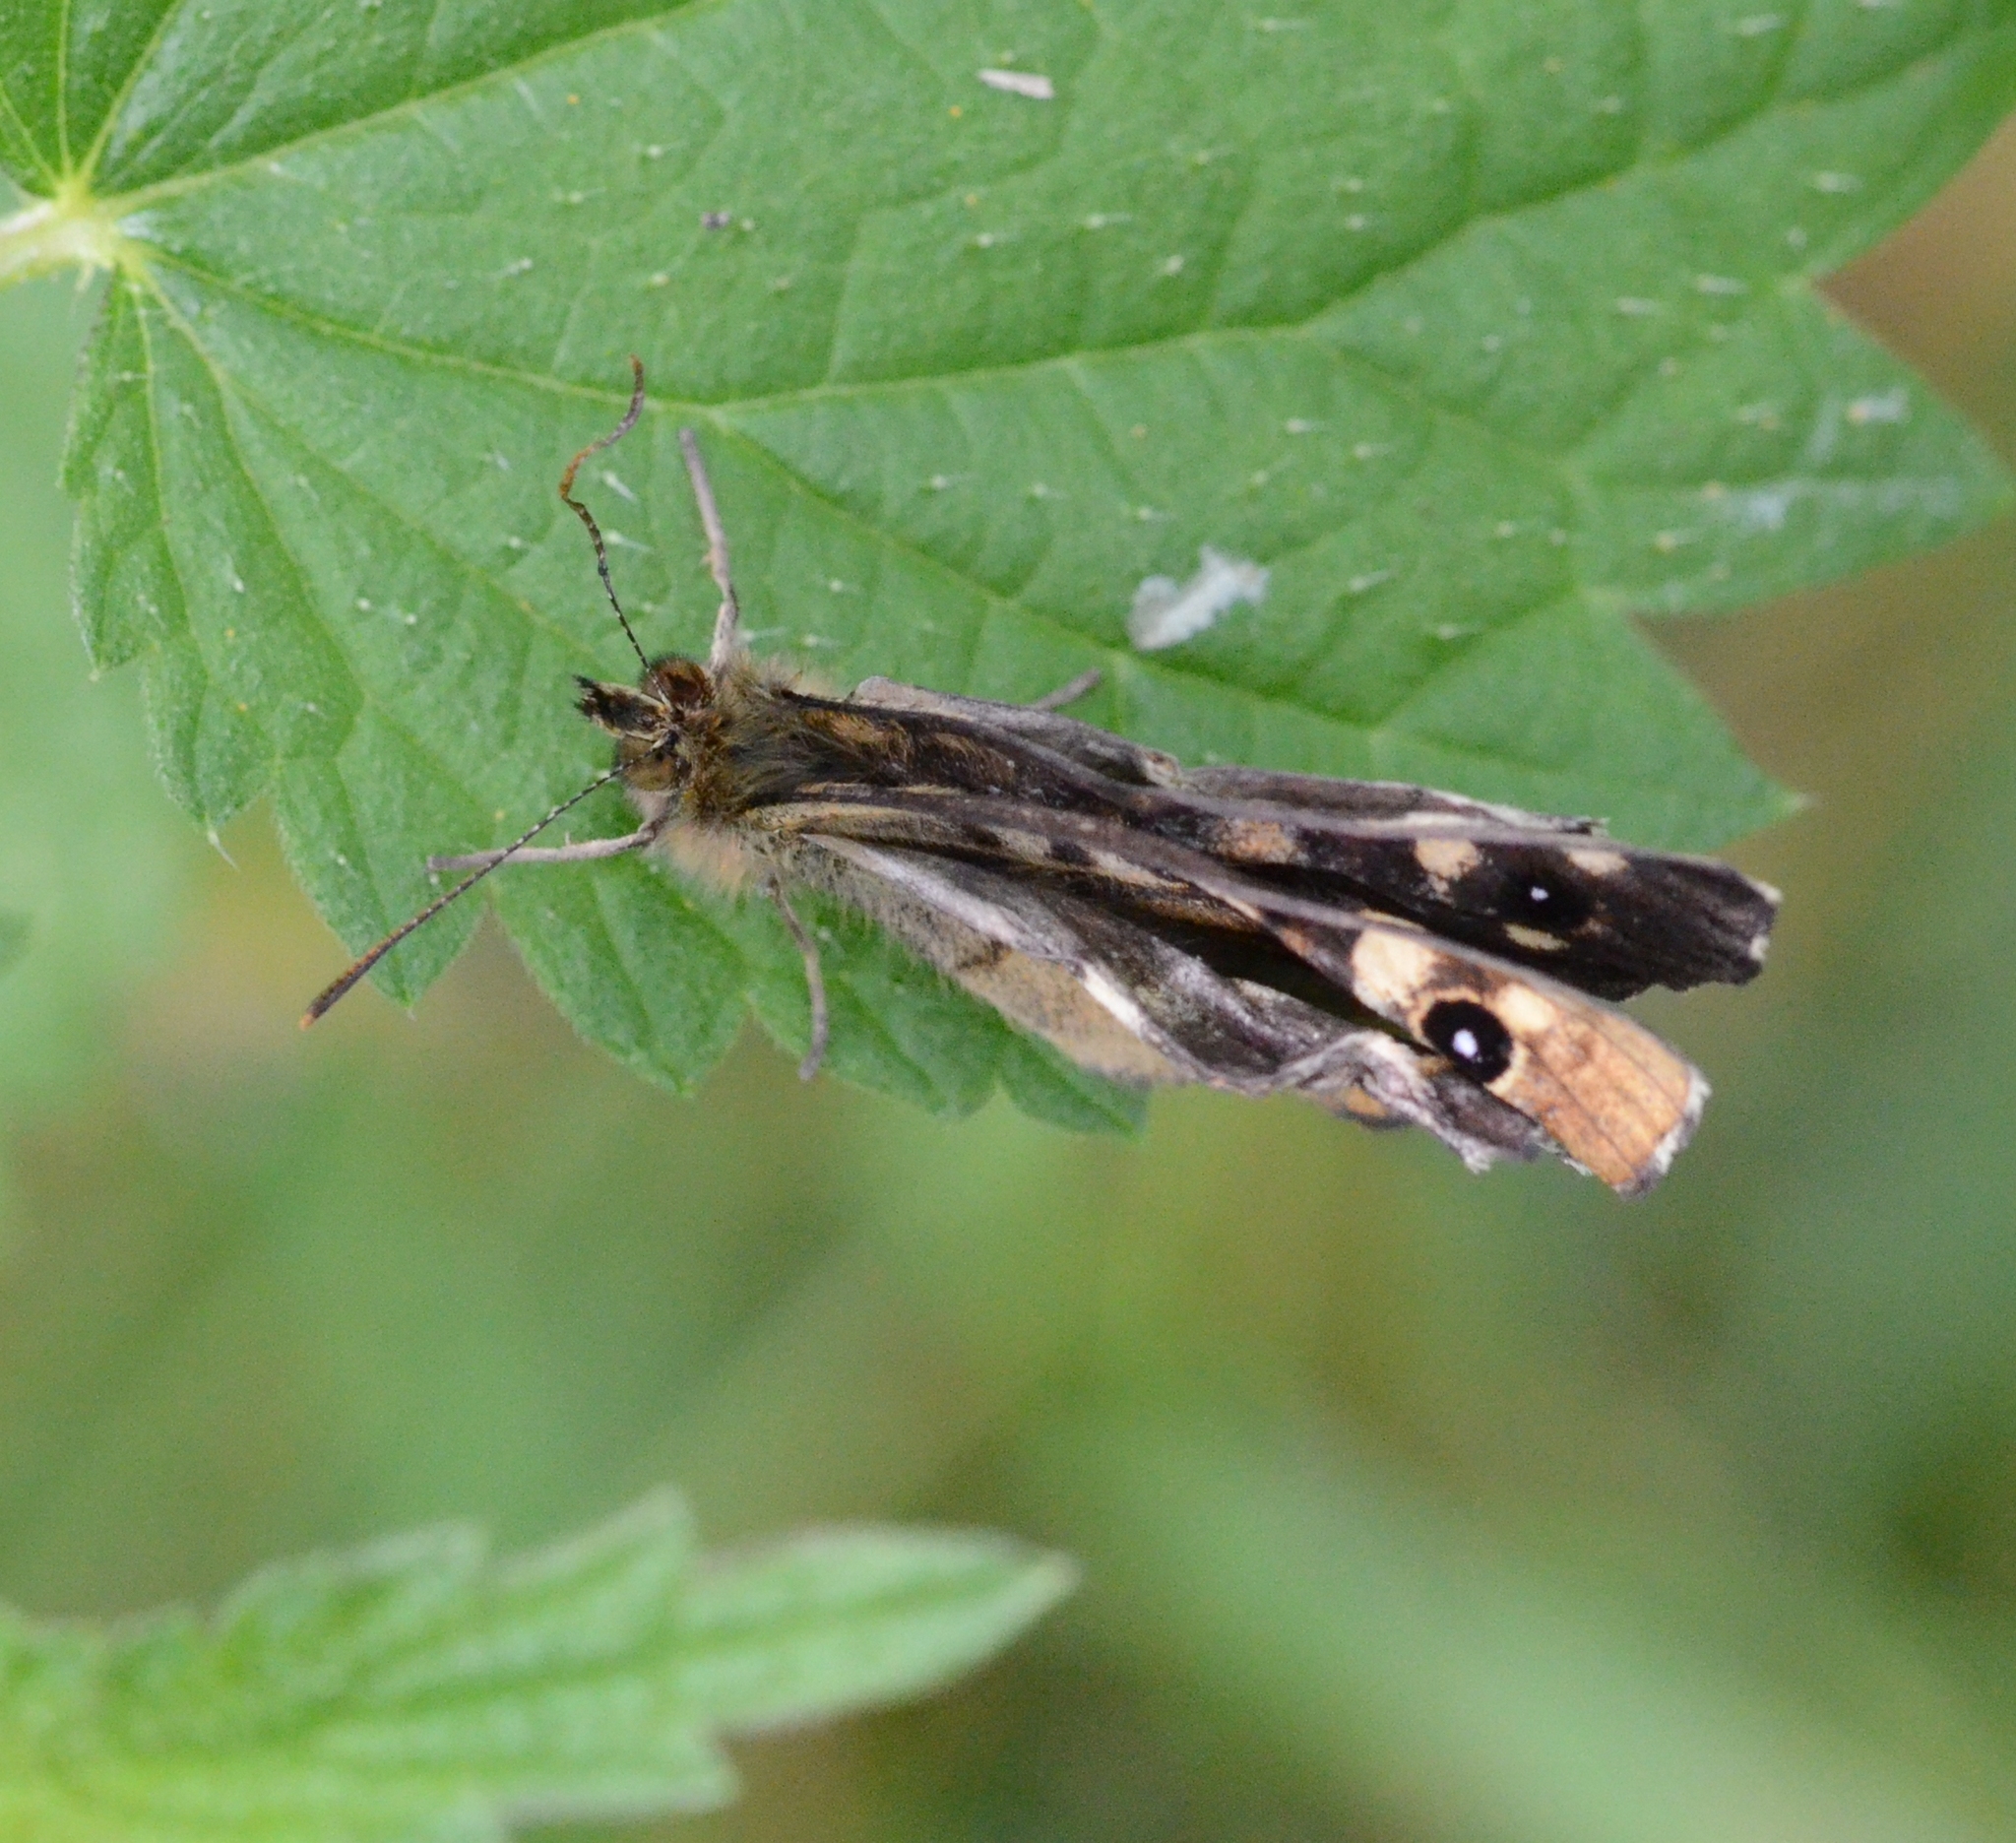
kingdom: Animalia
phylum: Arthropoda
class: Insecta
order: Lepidoptera
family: Nymphalidae
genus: Pararge
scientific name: Pararge aegeria
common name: Speckled wood
